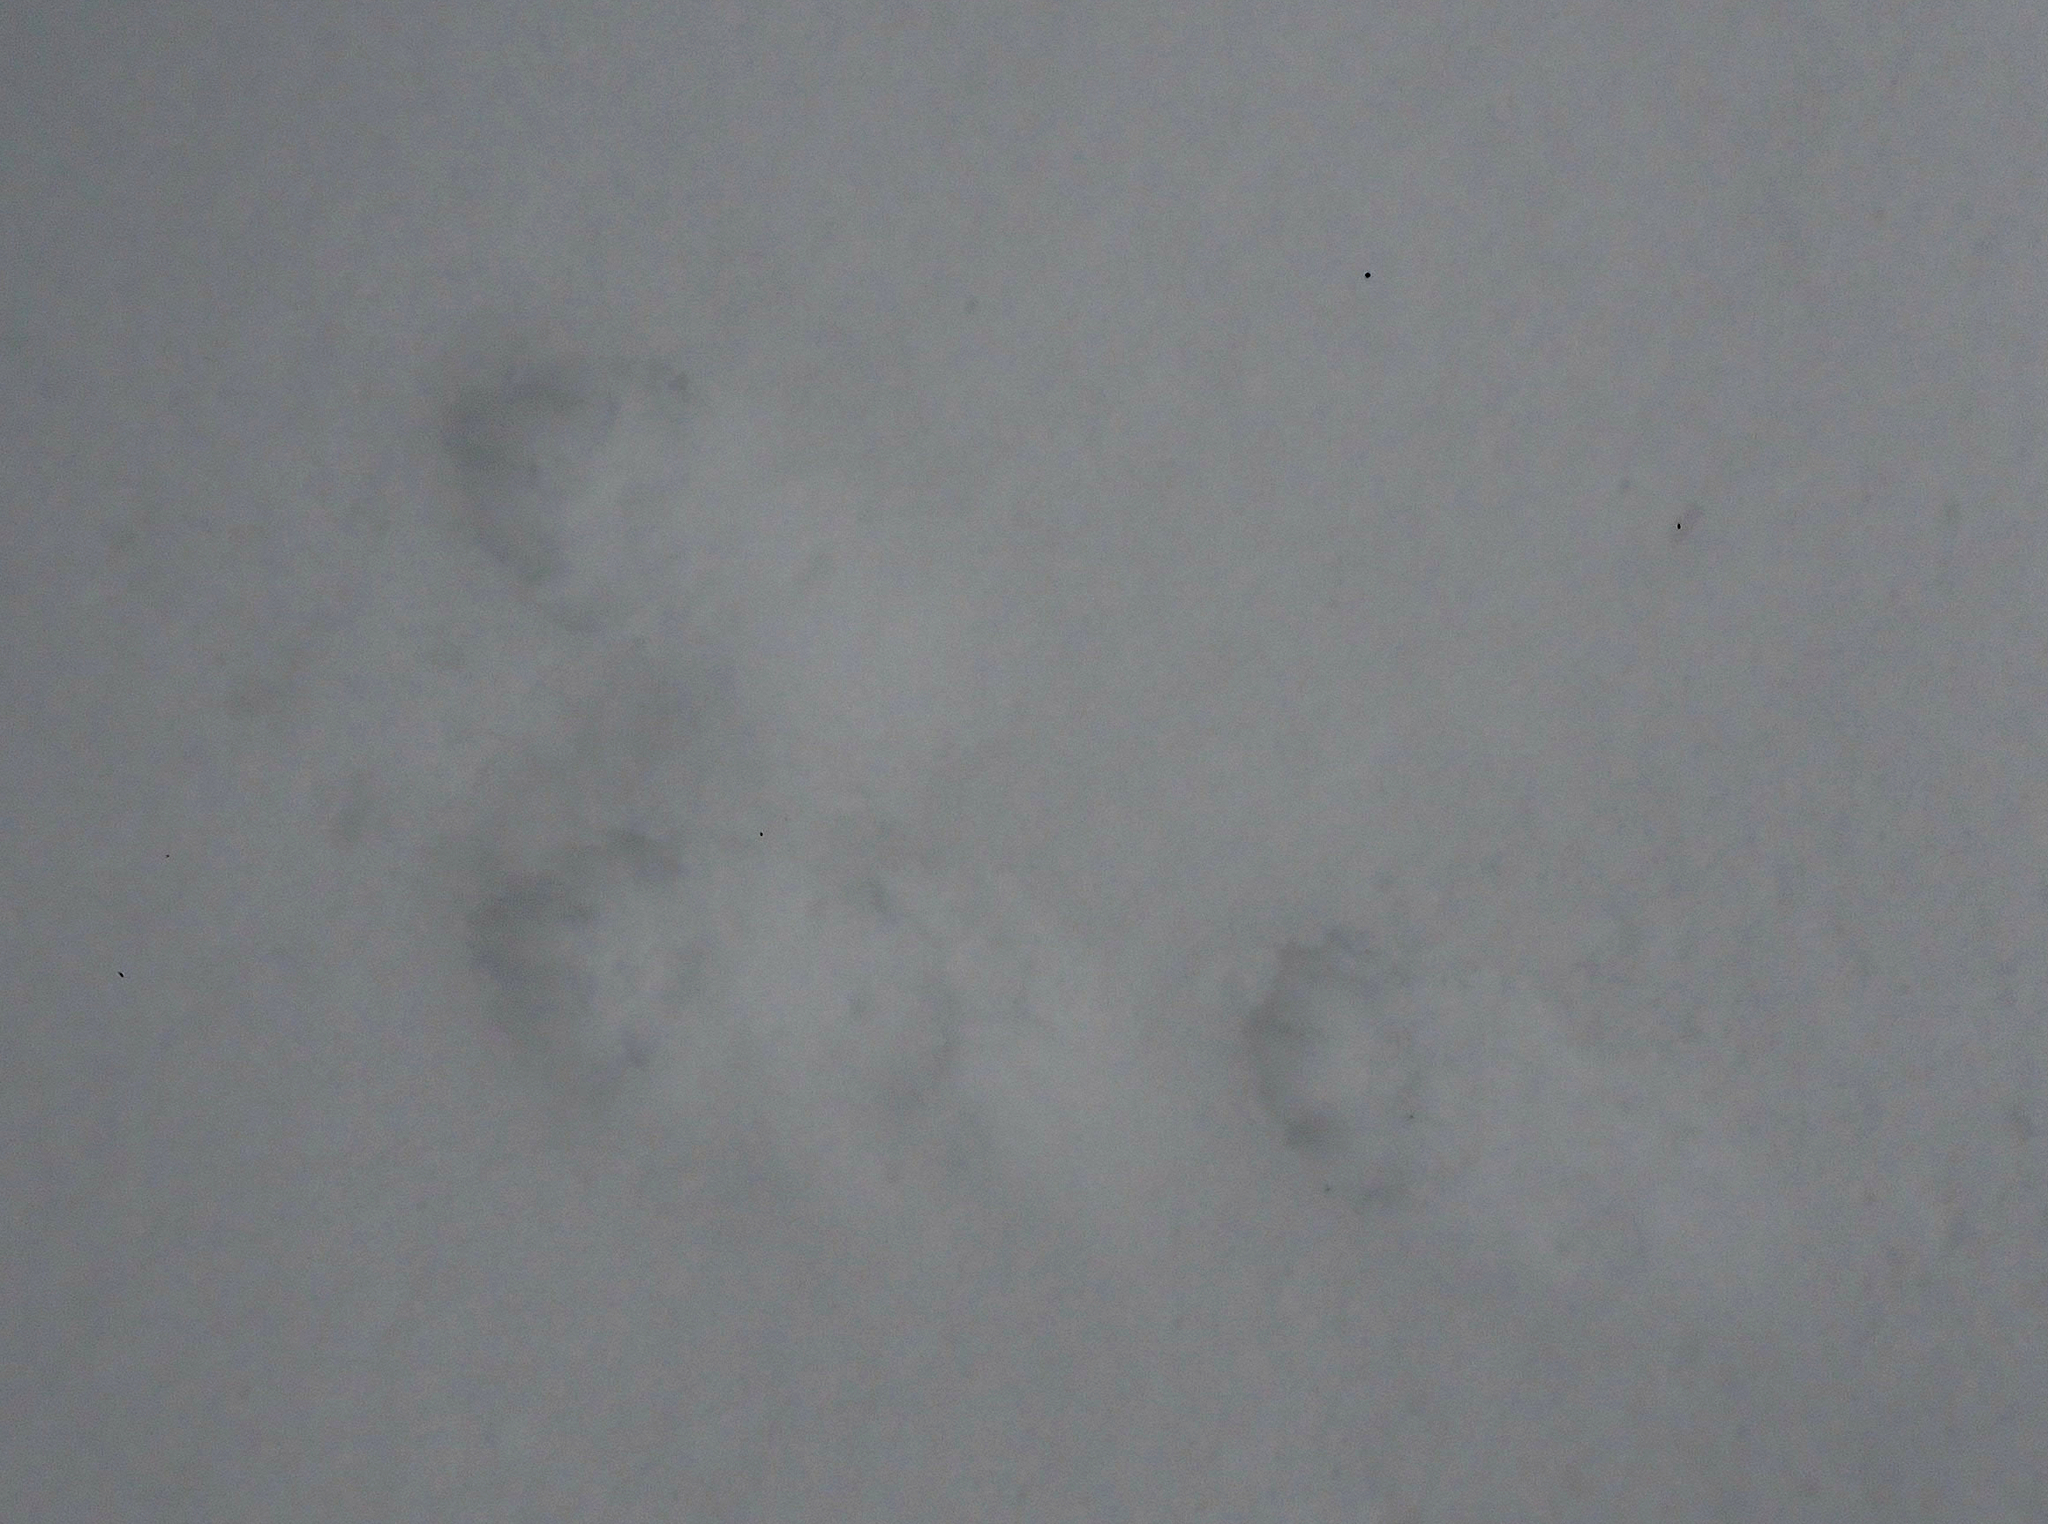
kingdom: Animalia
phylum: Chordata
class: Mammalia
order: Carnivora
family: Mustelidae
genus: Martes
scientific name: Martes americana
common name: American marten
